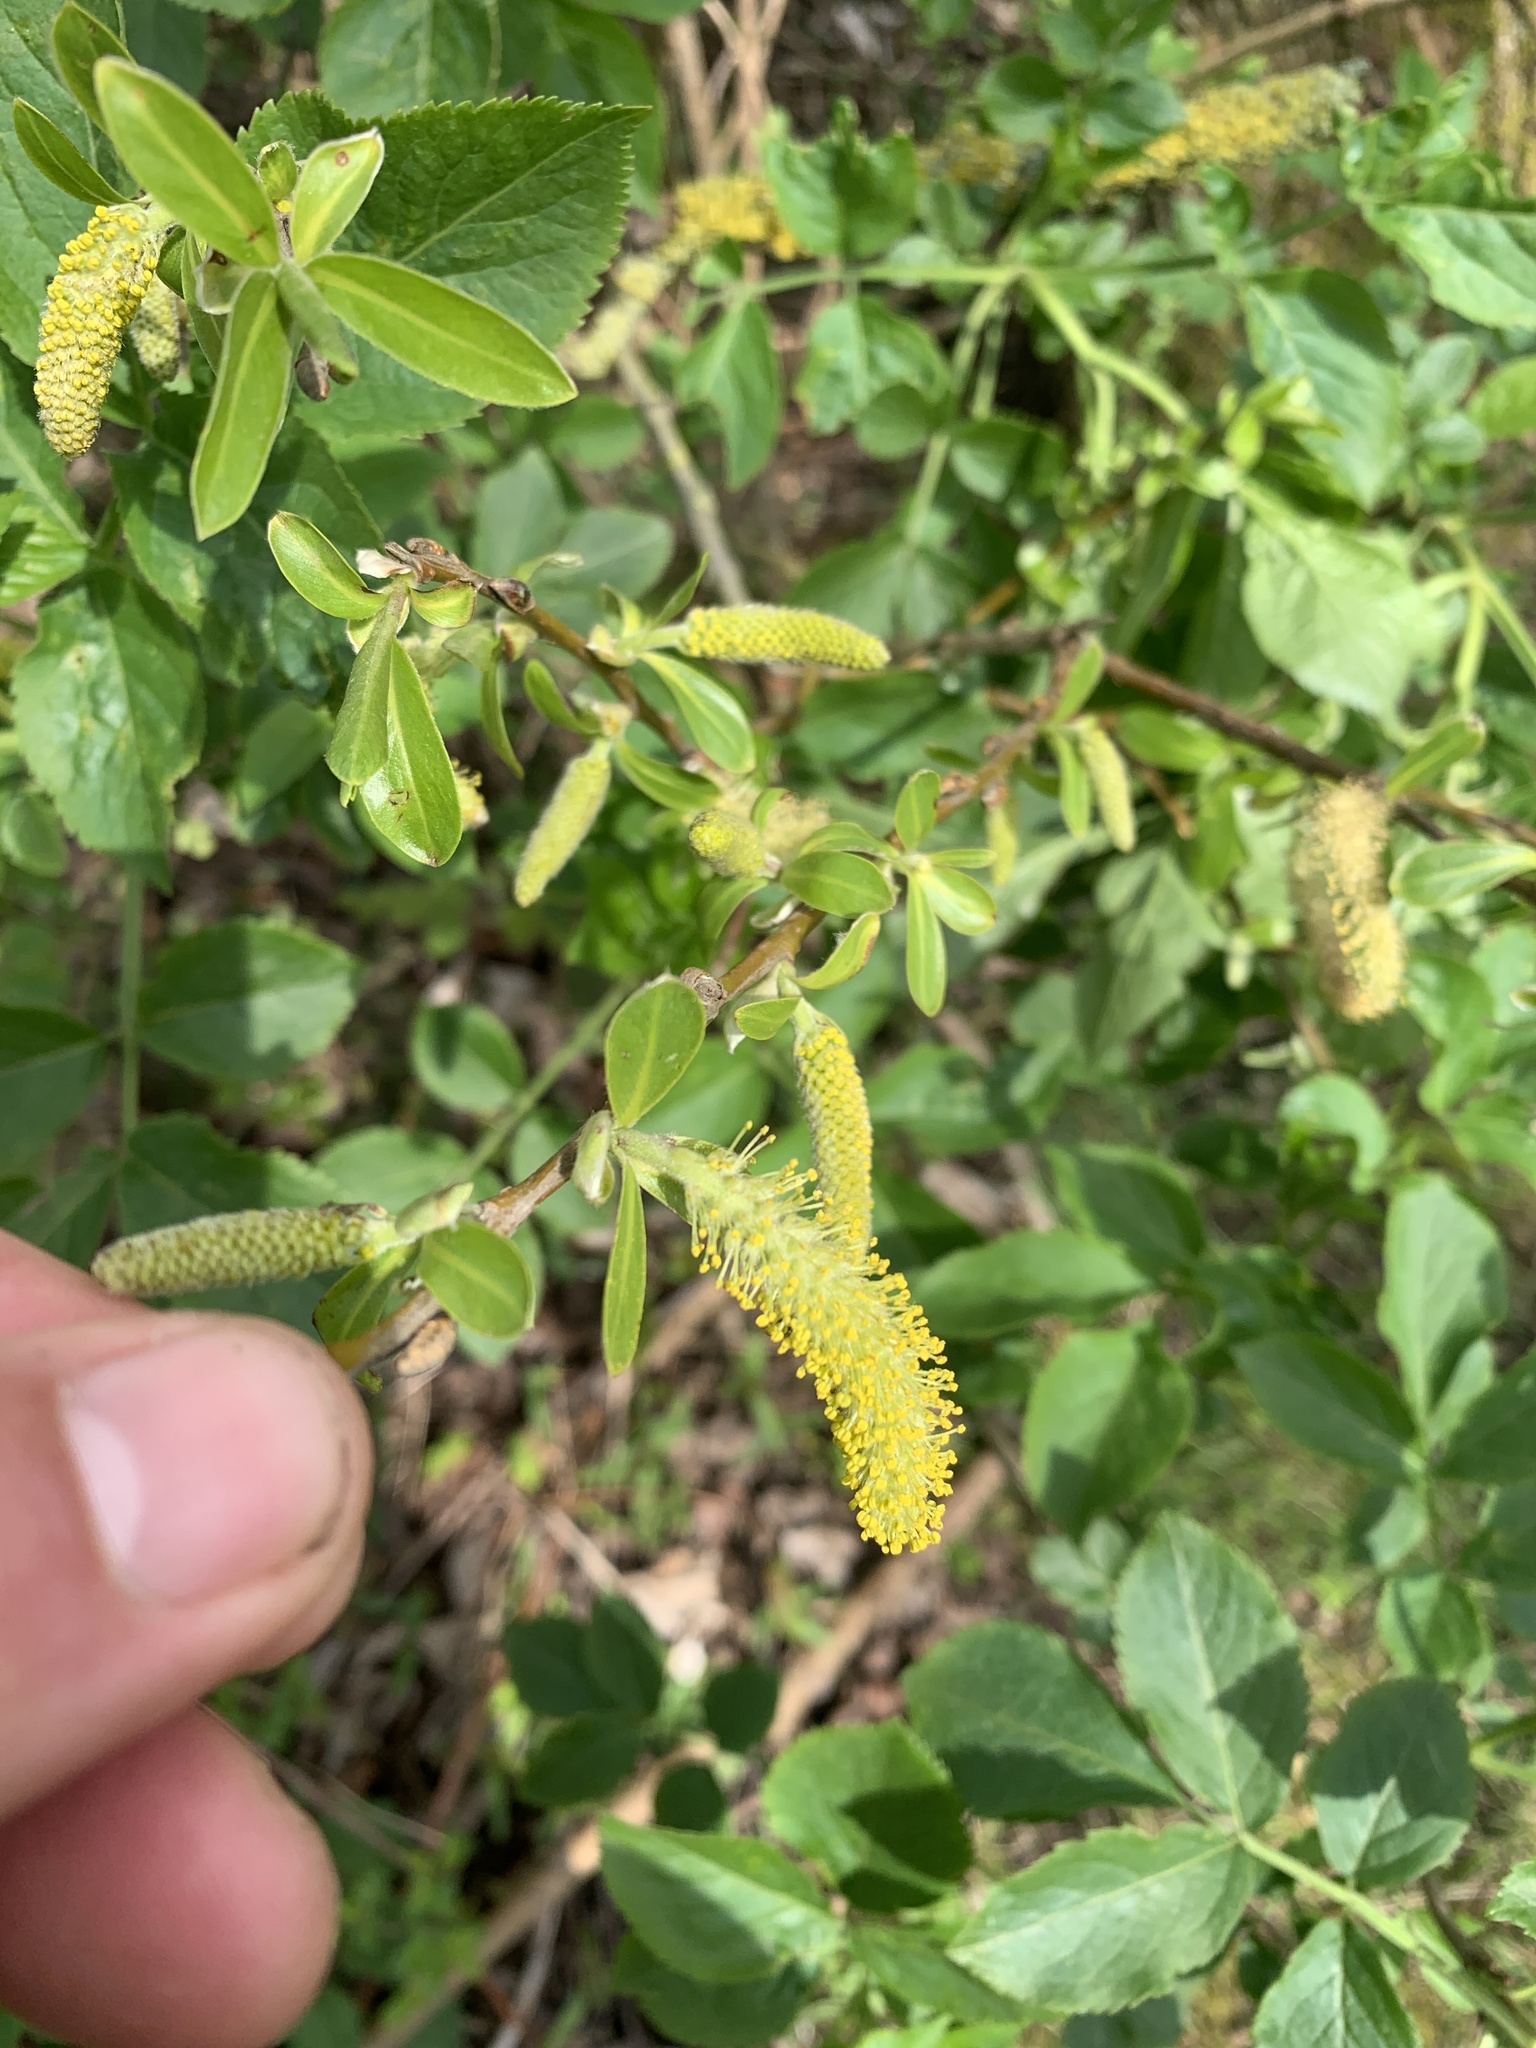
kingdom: Plantae
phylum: Tracheophyta
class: Magnoliopsida
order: Malpighiales
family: Salicaceae
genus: Salix
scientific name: Salix atrocinerea
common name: Rusty willow
